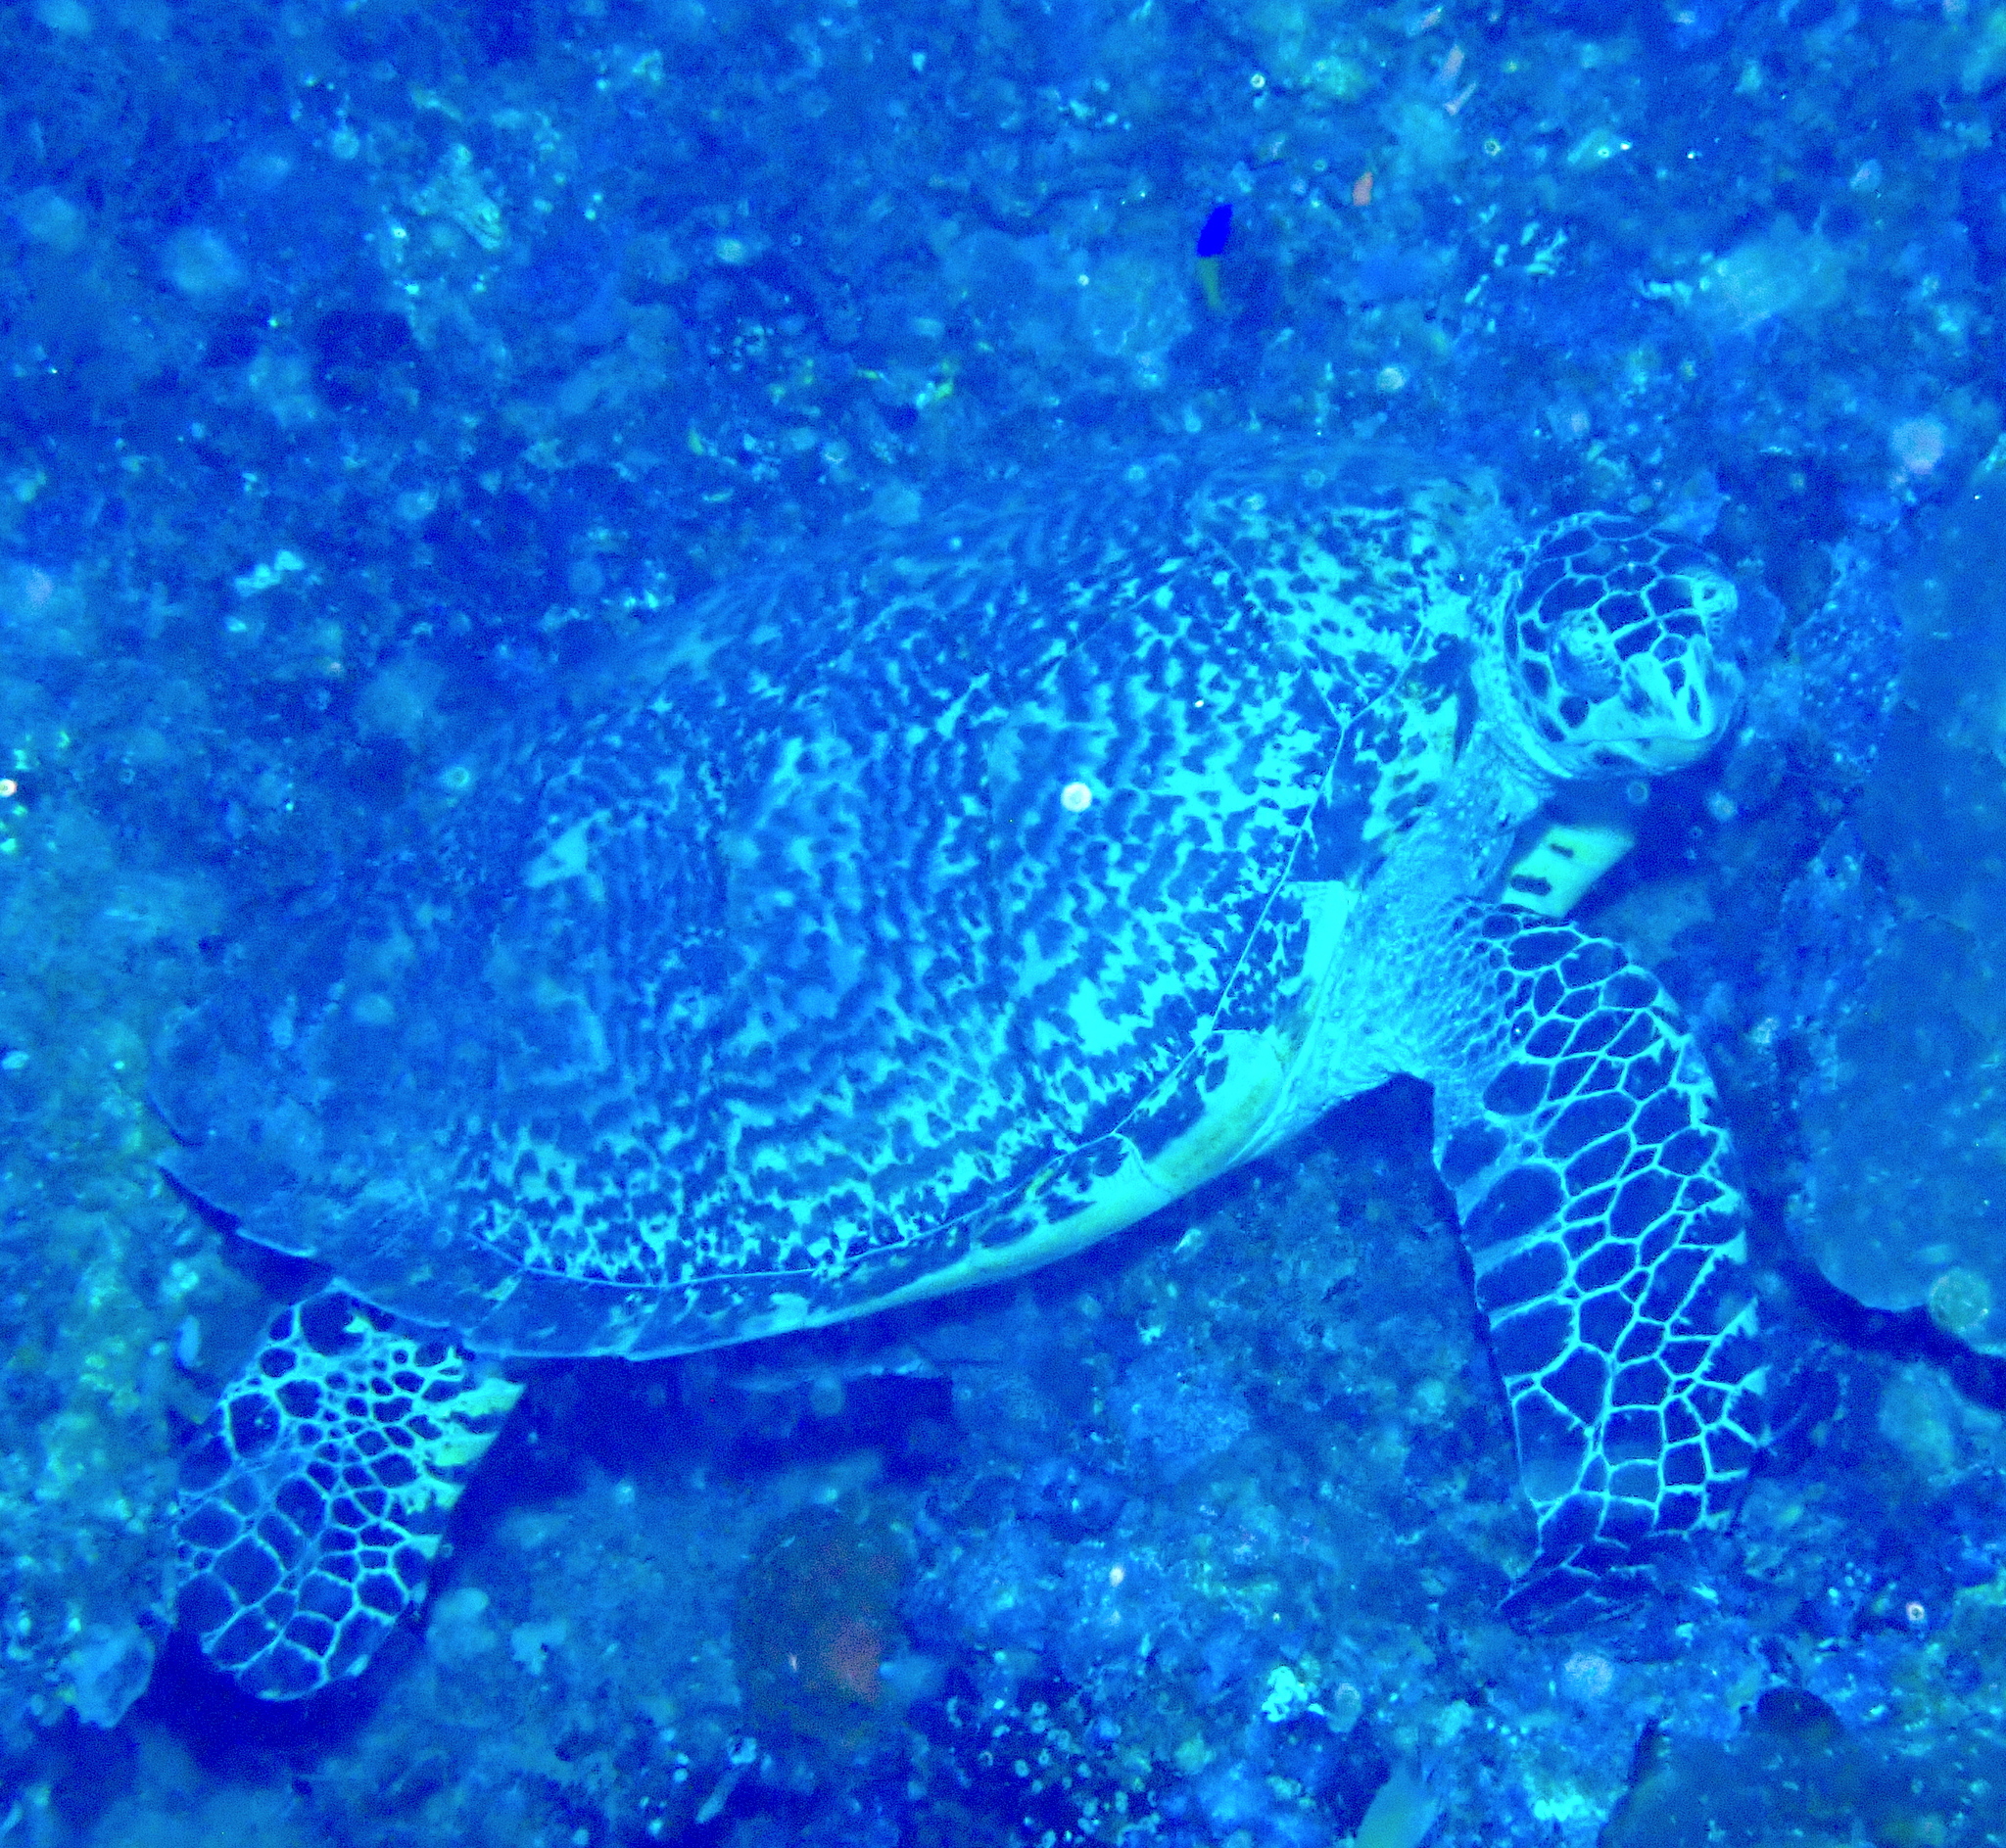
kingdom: Animalia
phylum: Chordata
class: Testudines
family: Cheloniidae
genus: Eretmochelys
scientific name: Eretmochelys imbricata
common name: Hawksbill turtle
